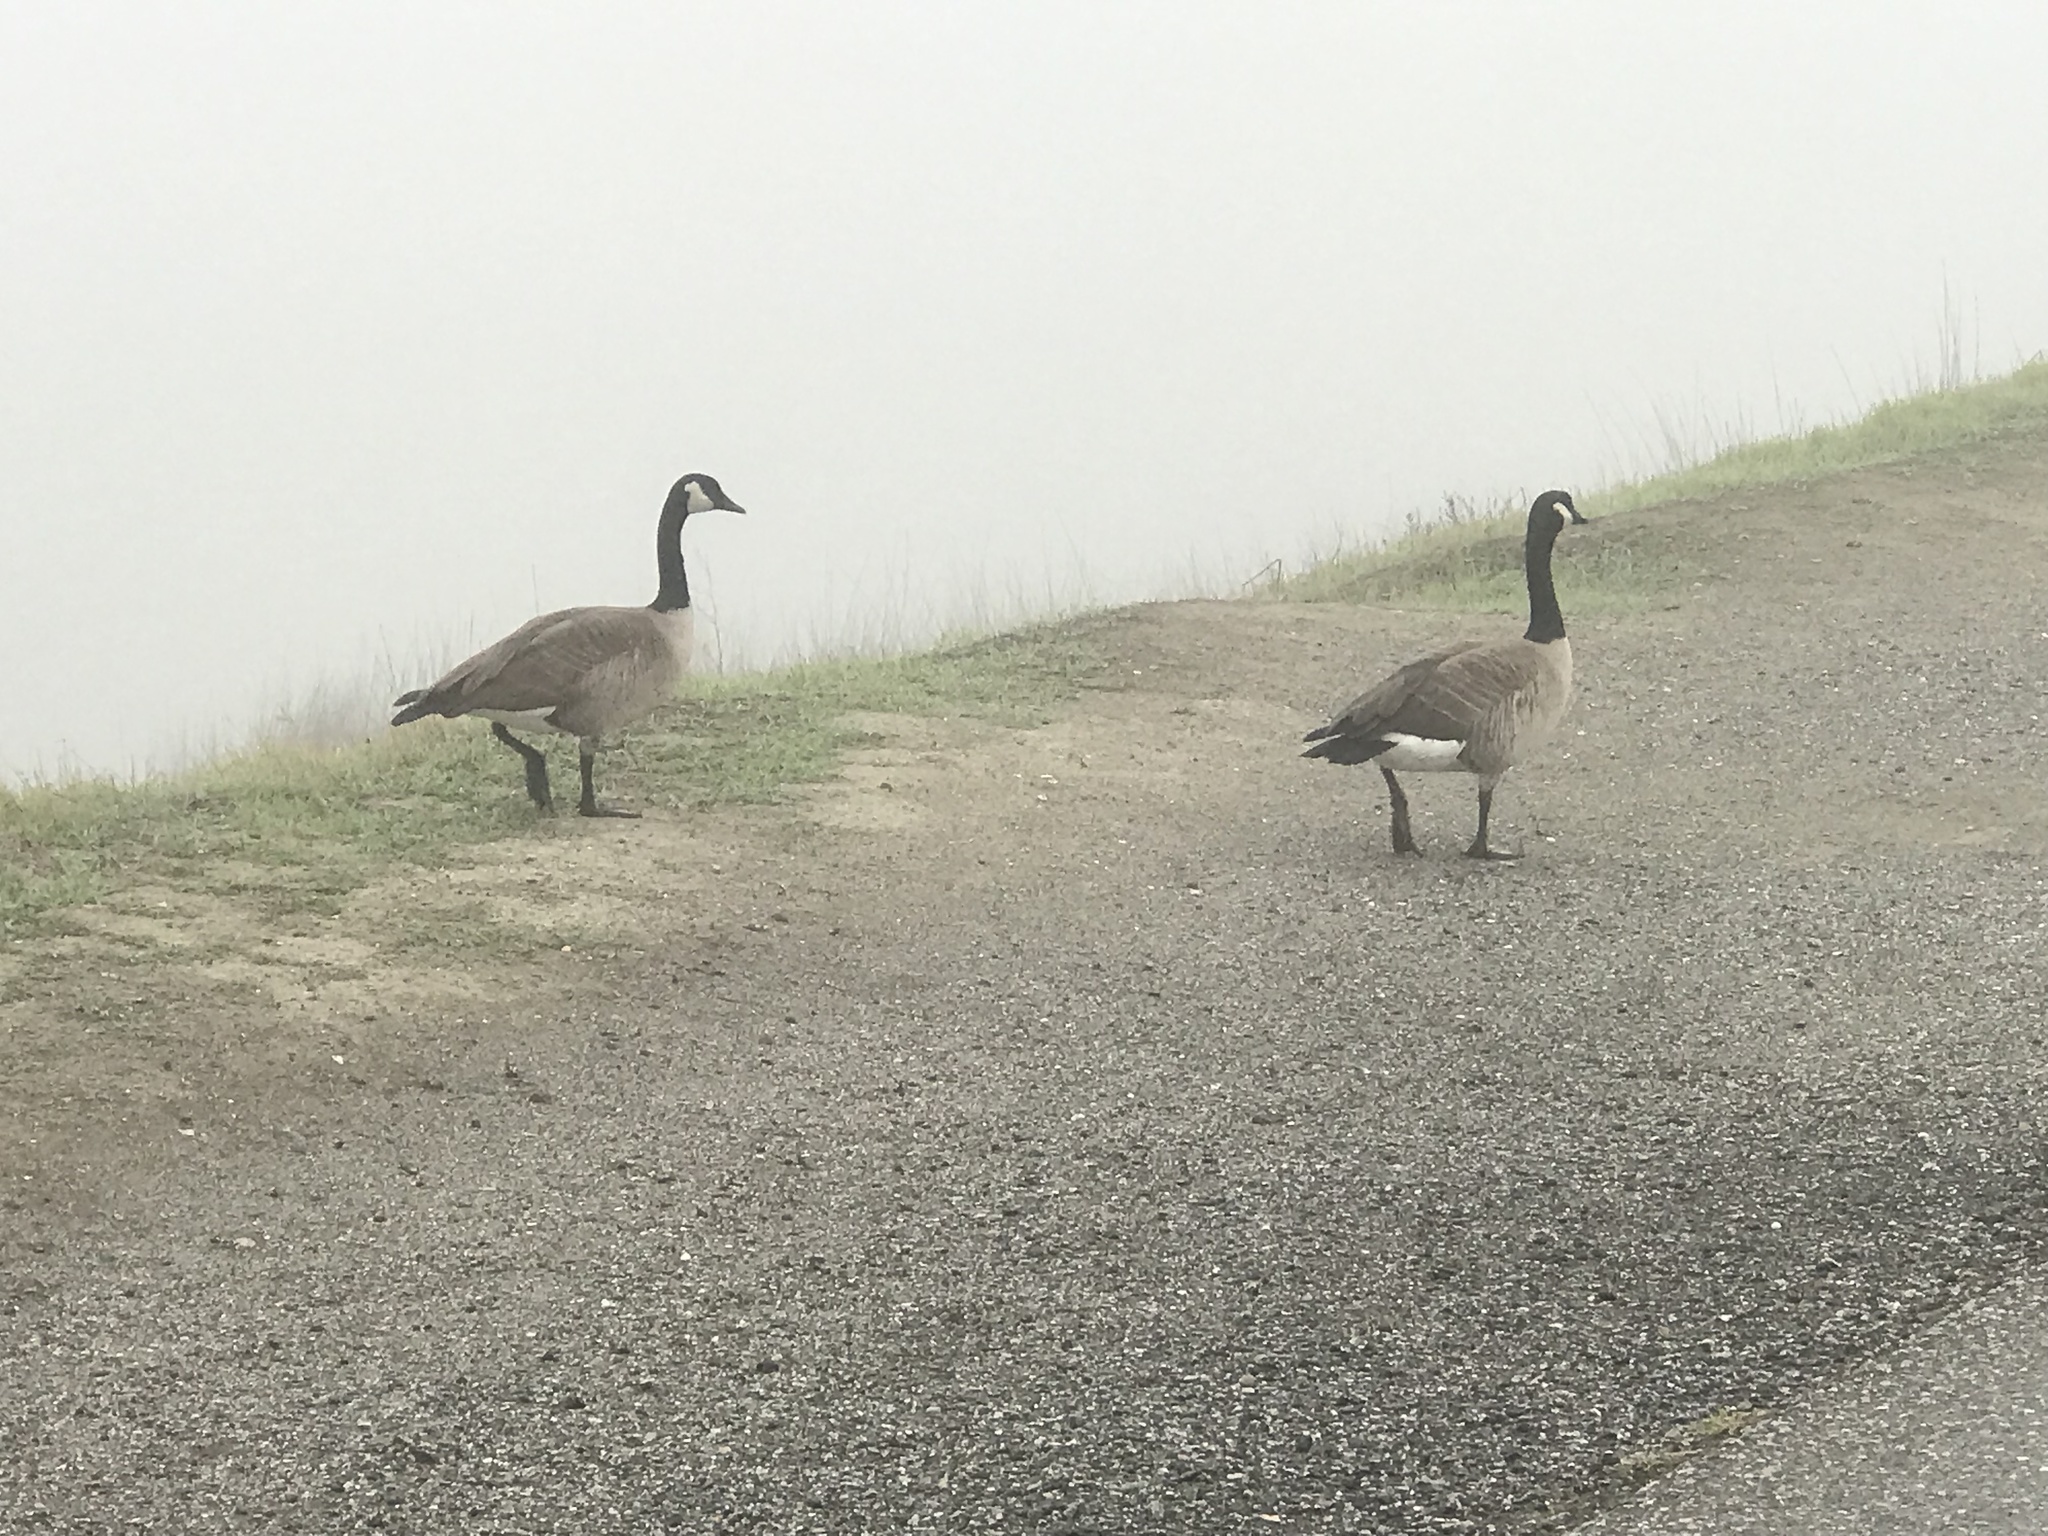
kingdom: Animalia
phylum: Chordata
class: Aves
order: Anseriformes
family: Anatidae
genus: Branta
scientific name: Branta canadensis
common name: Canada goose
